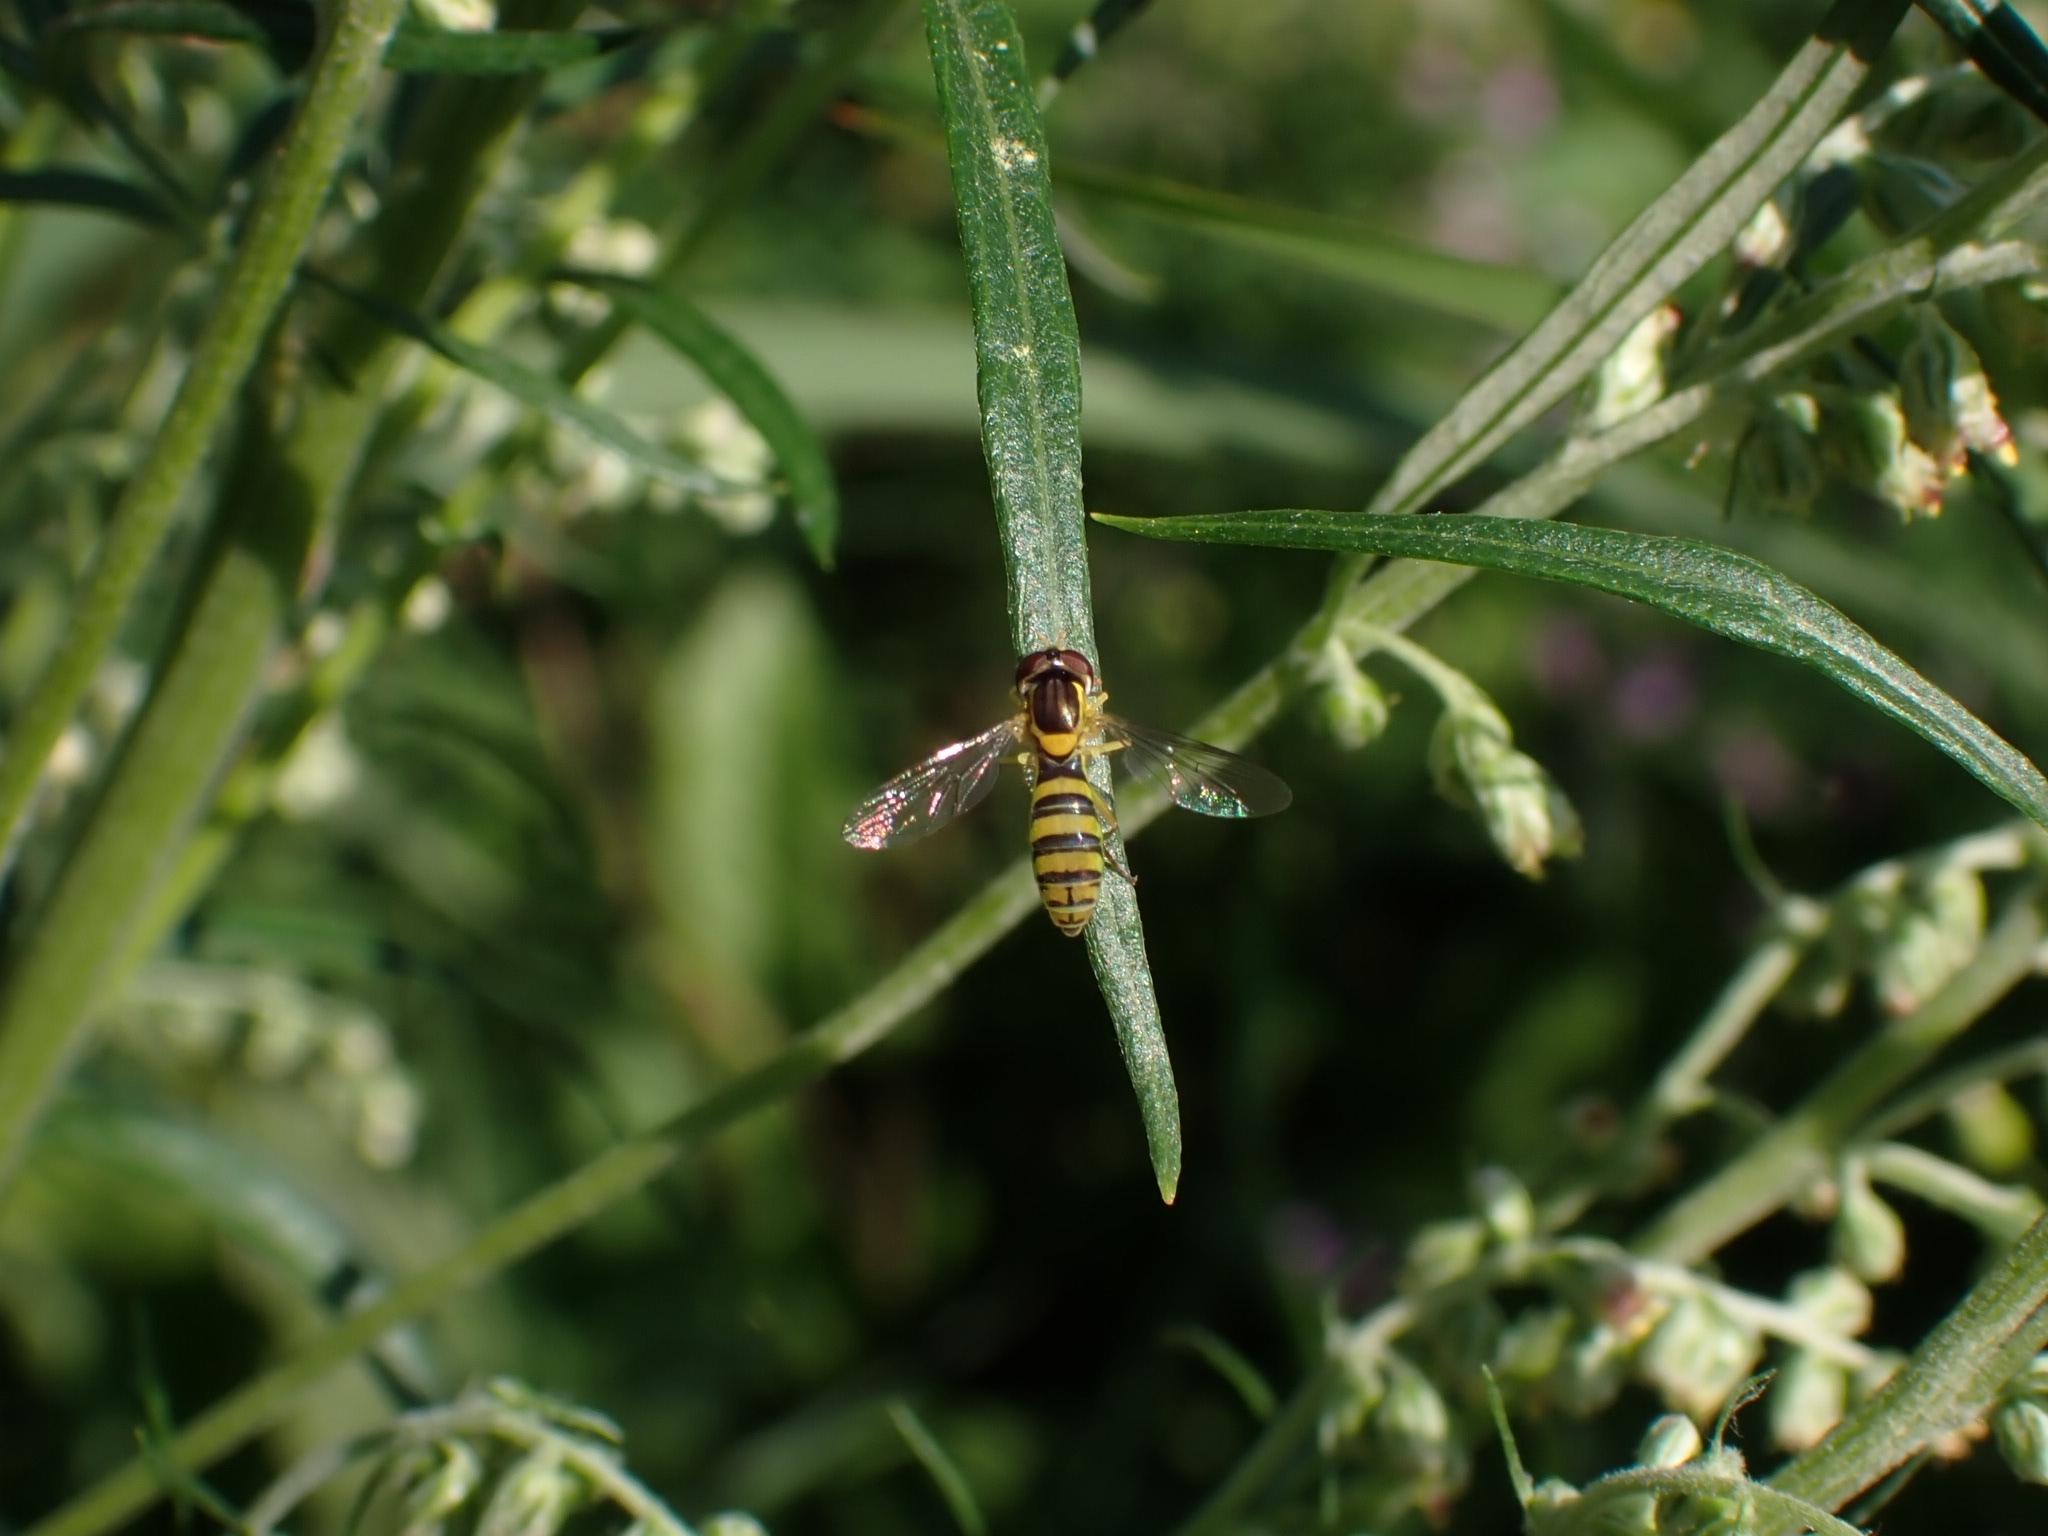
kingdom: Animalia
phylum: Arthropoda
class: Insecta
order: Diptera
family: Syrphidae
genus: Sphaerophoria
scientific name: Sphaerophoria
